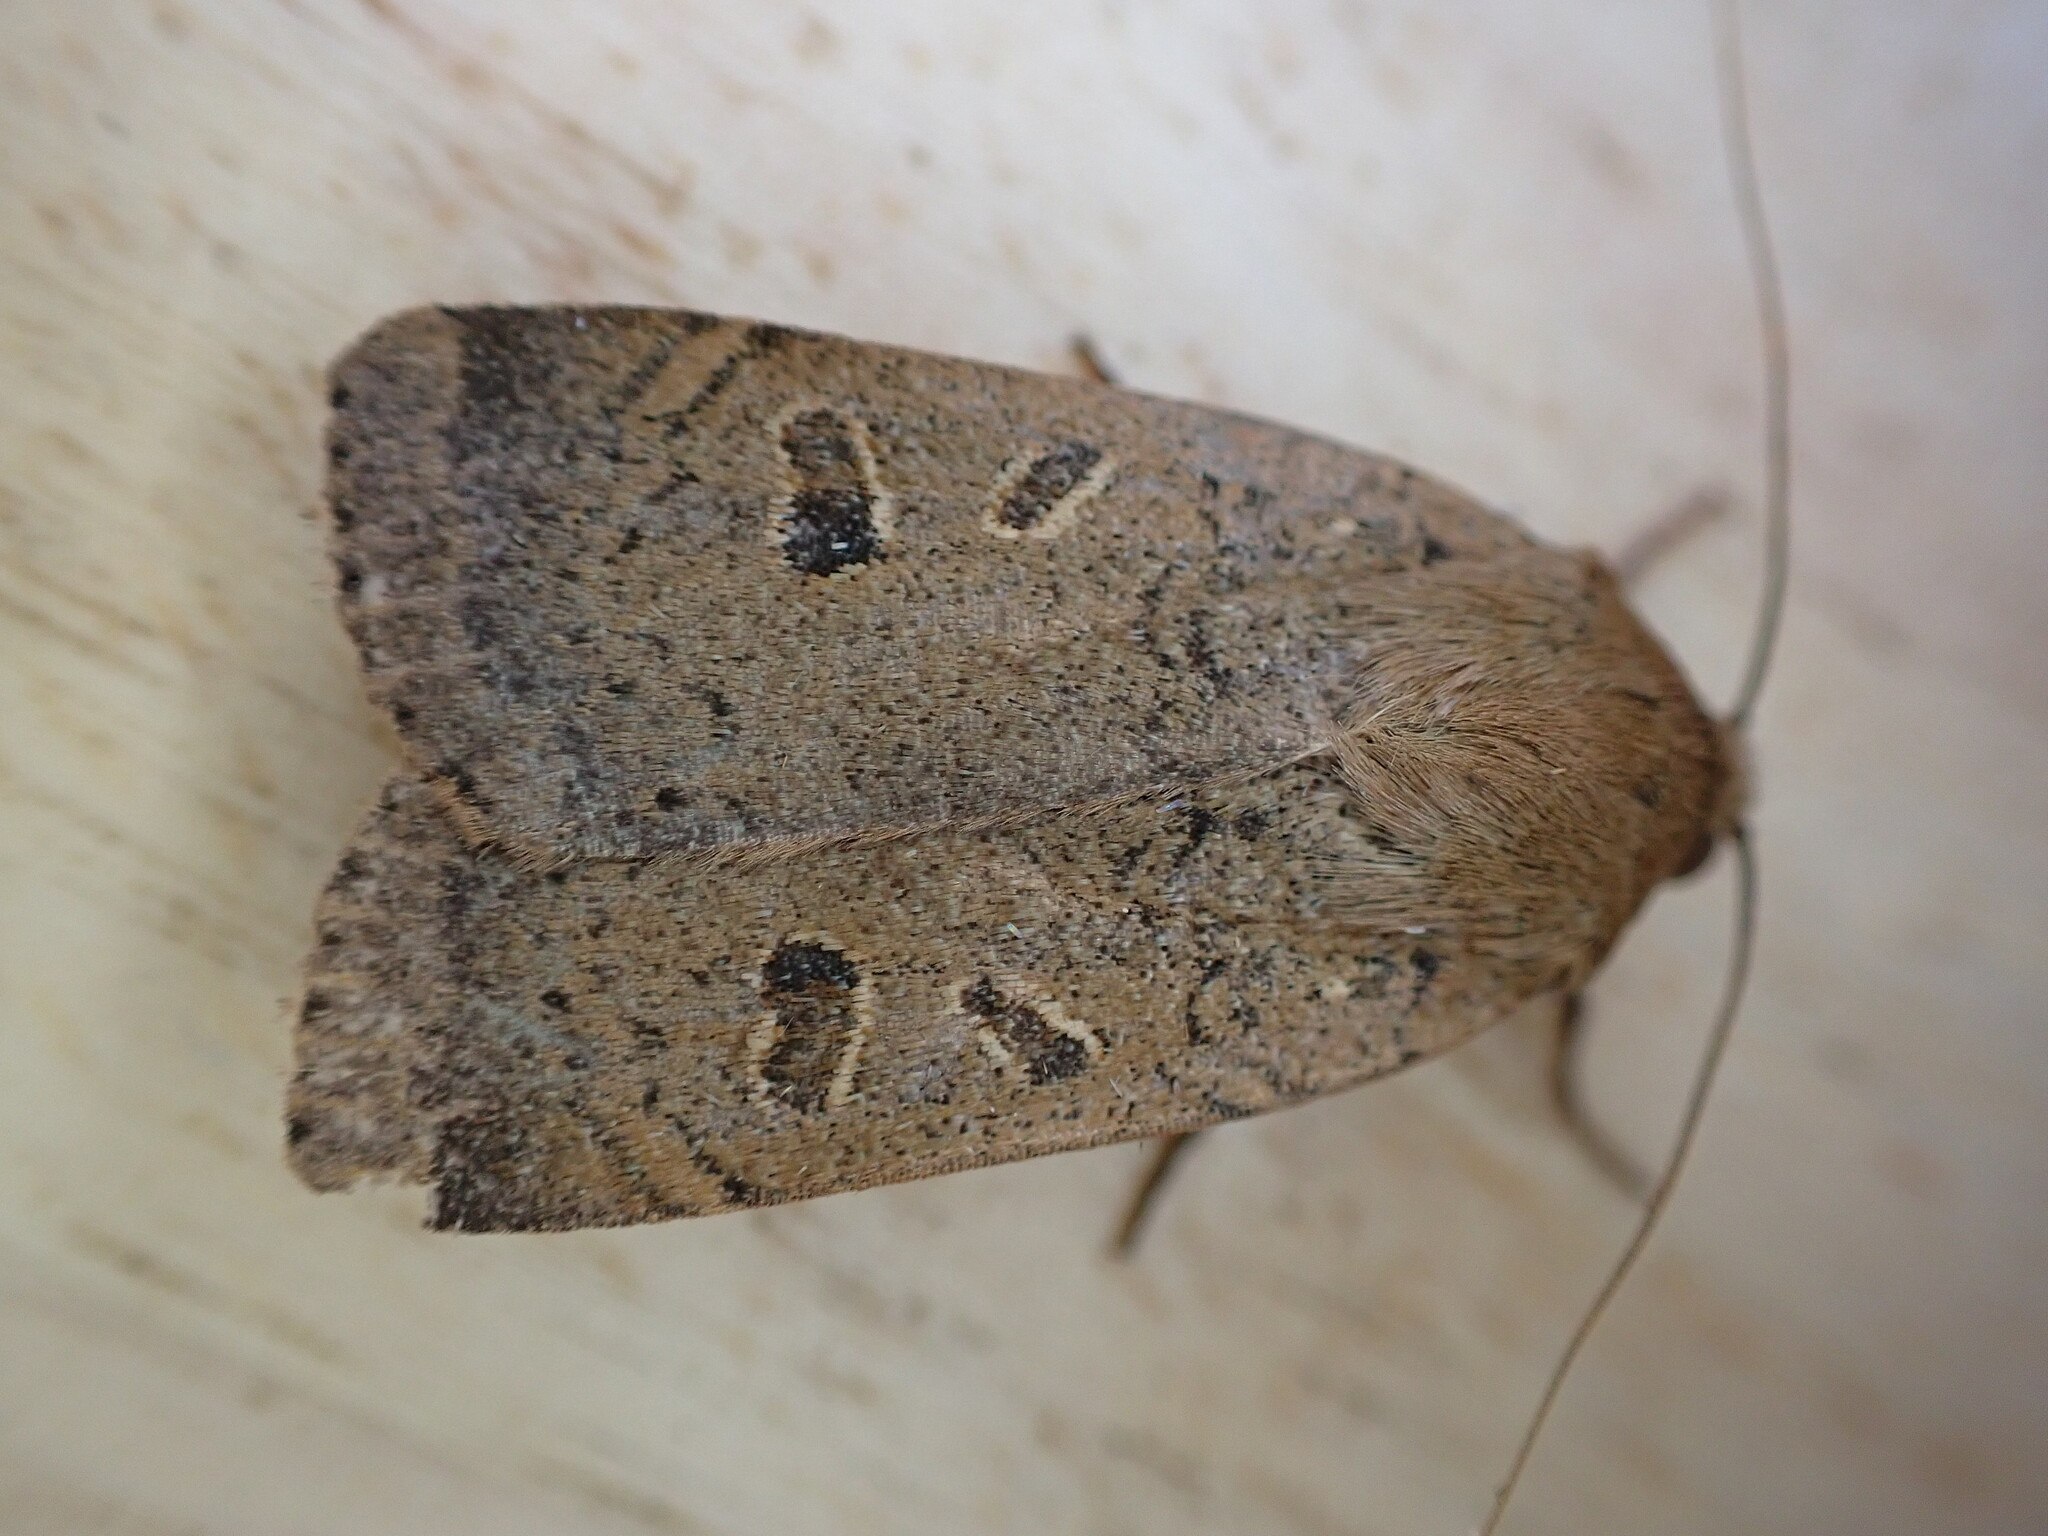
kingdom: Animalia
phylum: Arthropoda
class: Insecta
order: Lepidoptera
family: Noctuidae
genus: Noctua
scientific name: Noctua comes
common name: Lesser yellow underwing
